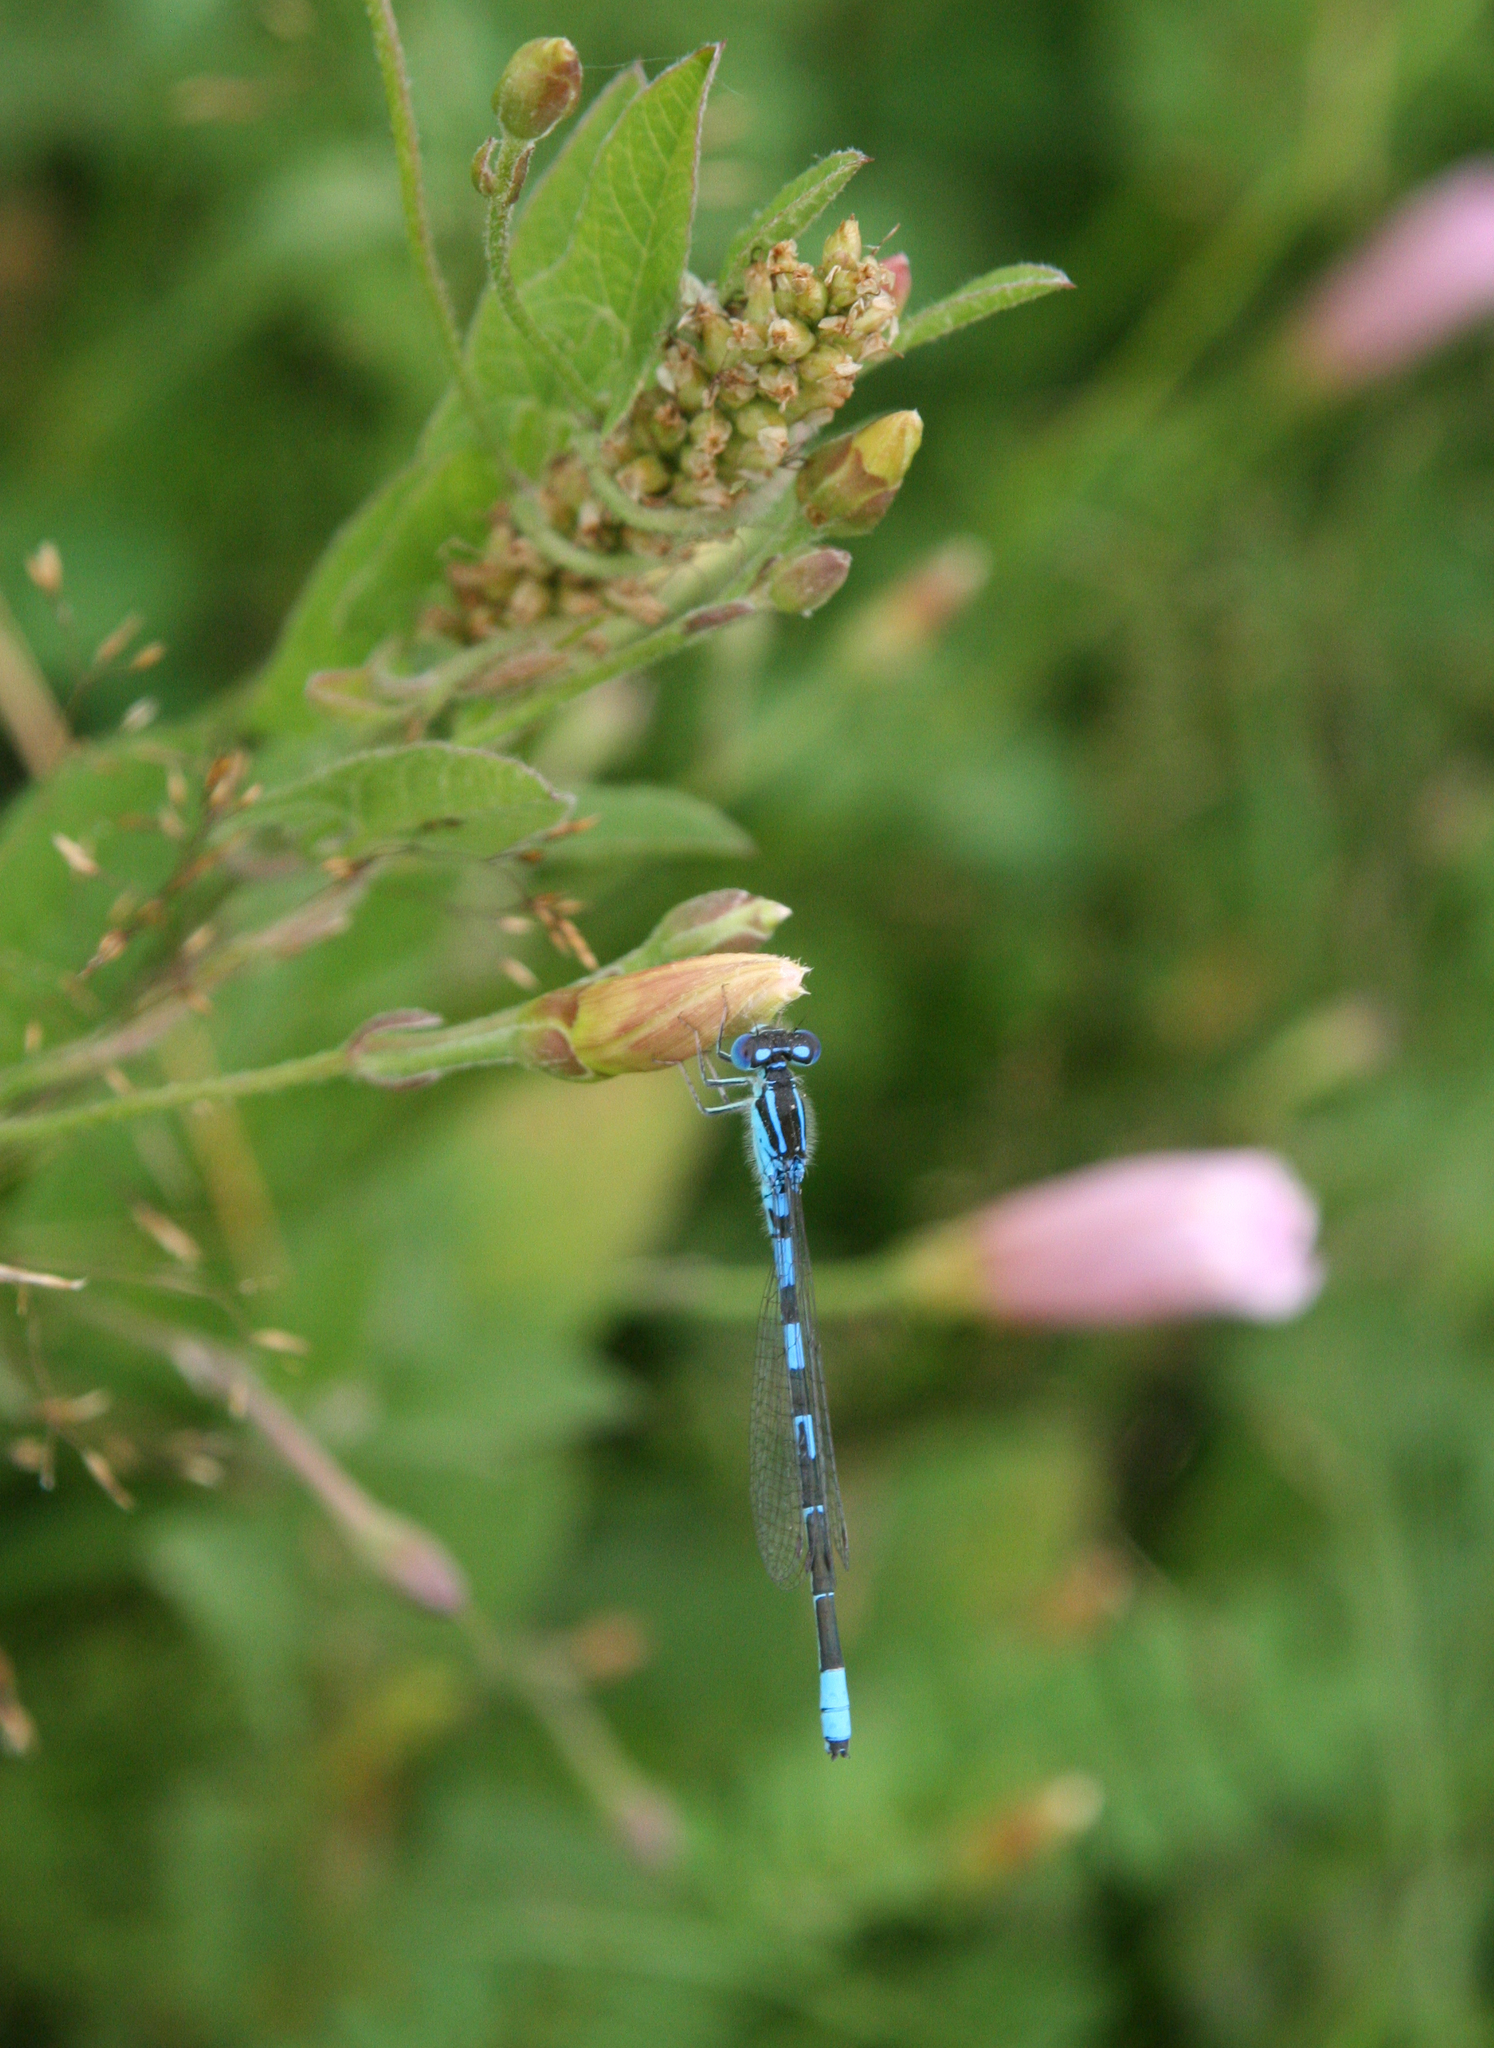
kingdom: Animalia
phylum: Arthropoda
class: Insecta
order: Odonata
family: Coenagrionidae
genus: Coenagrion
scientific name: Coenagrion scitulum
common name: Dainty bluet
